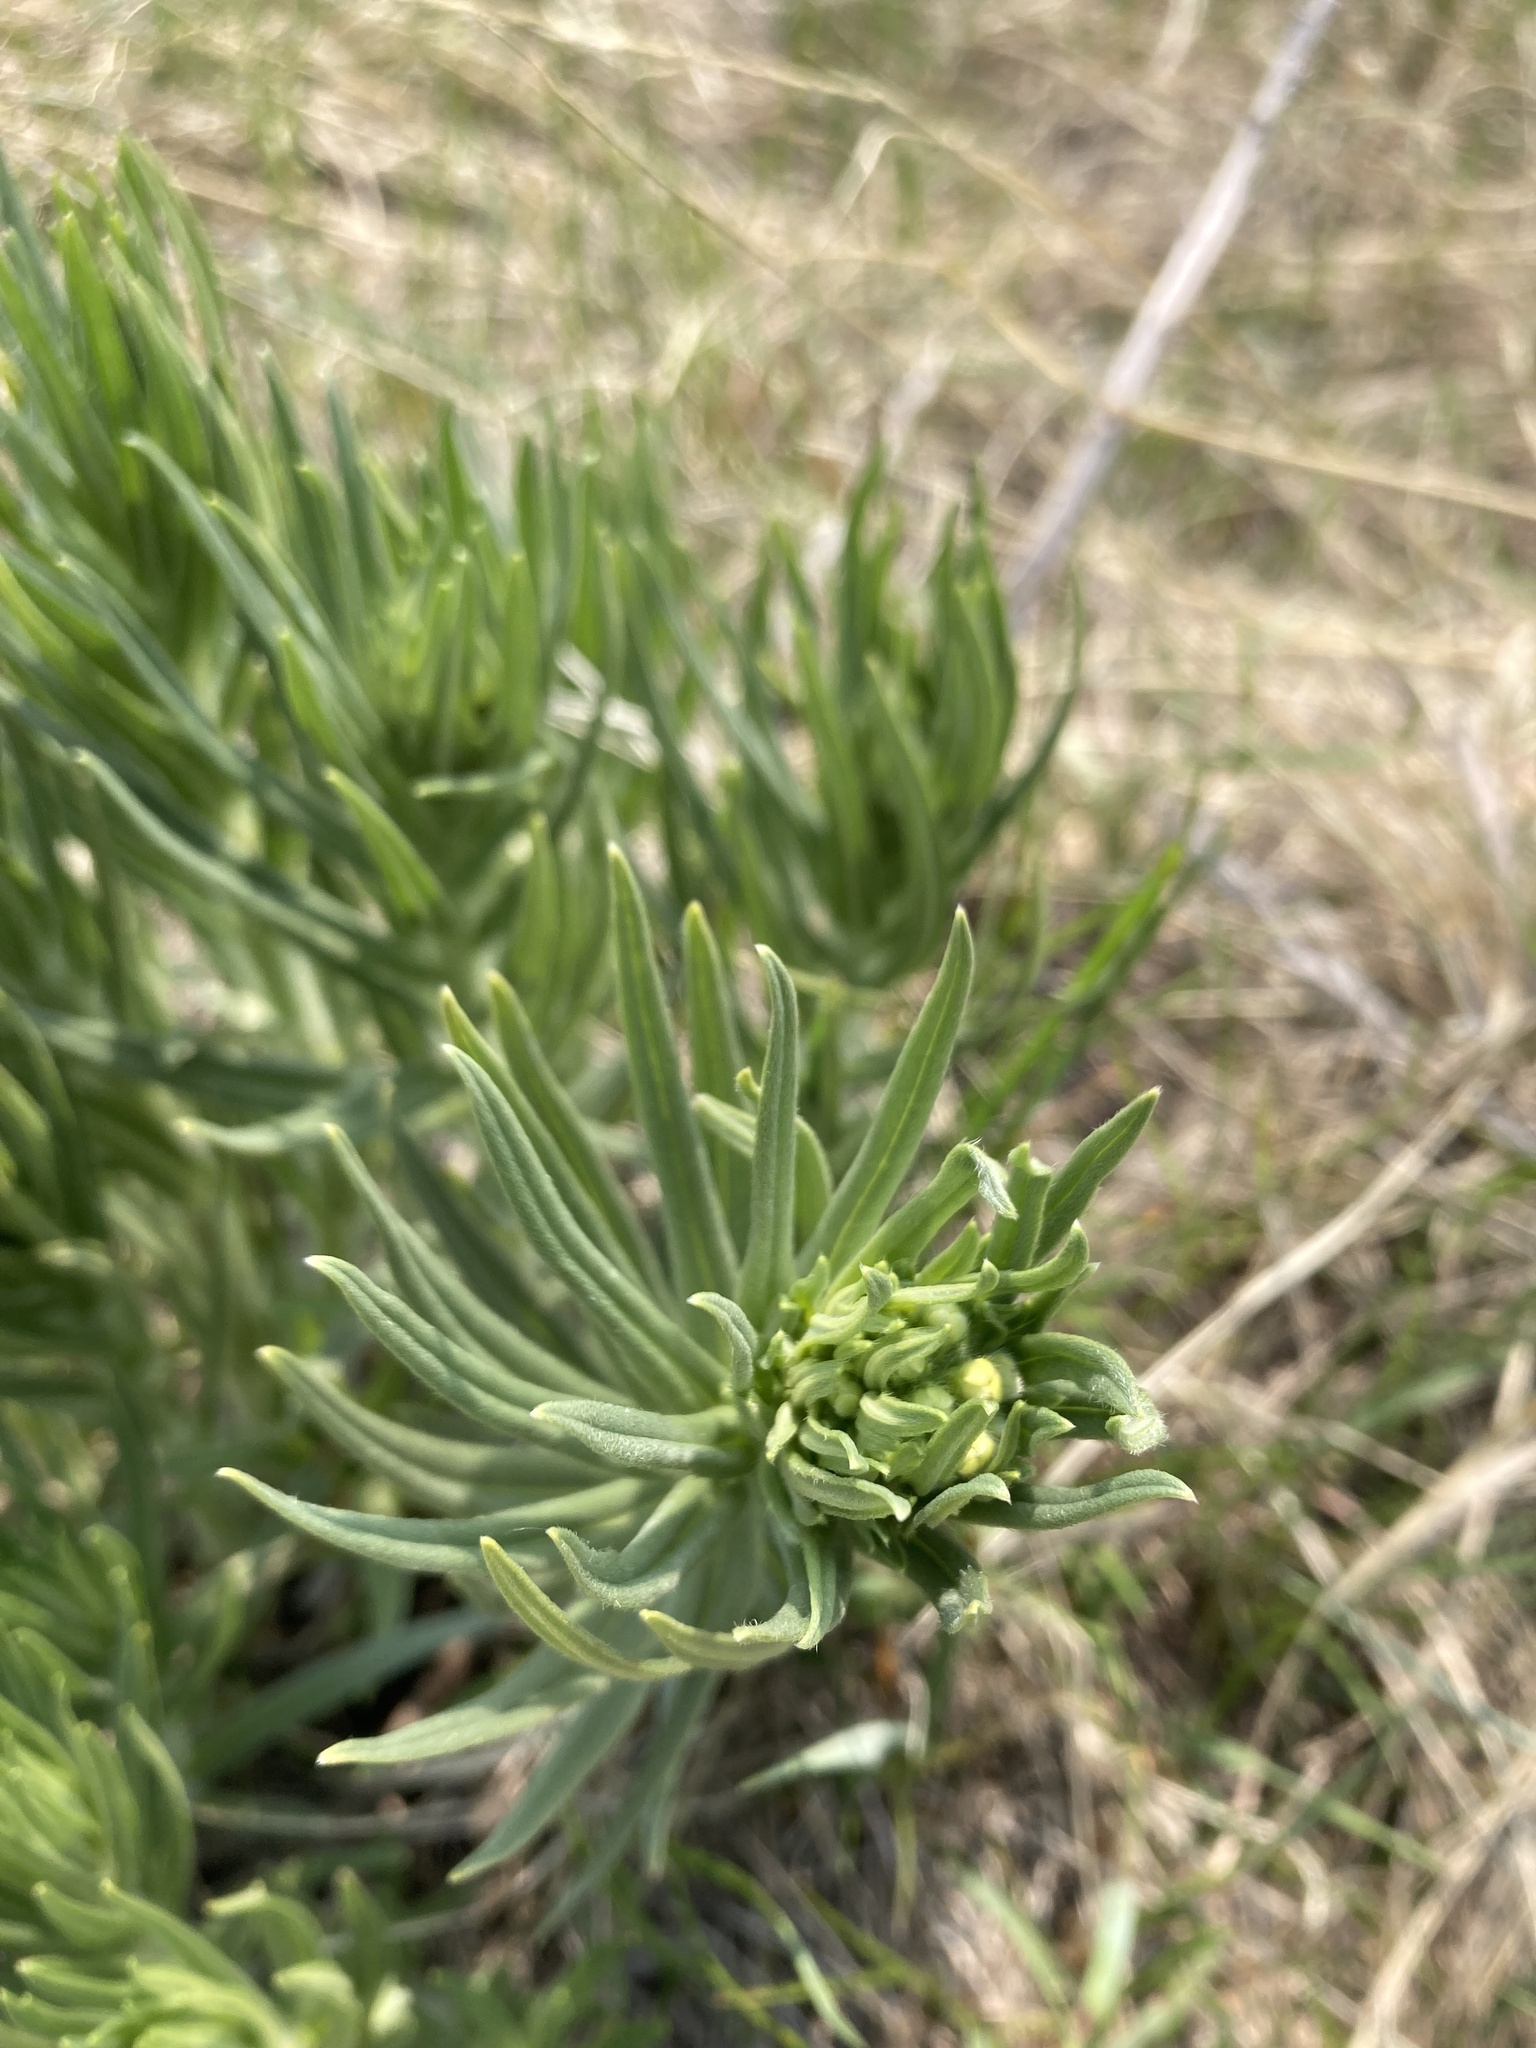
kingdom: Plantae
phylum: Tracheophyta
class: Magnoliopsida
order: Boraginales
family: Boraginaceae
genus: Lithospermum
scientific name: Lithospermum ruderale
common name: Western gromwell
